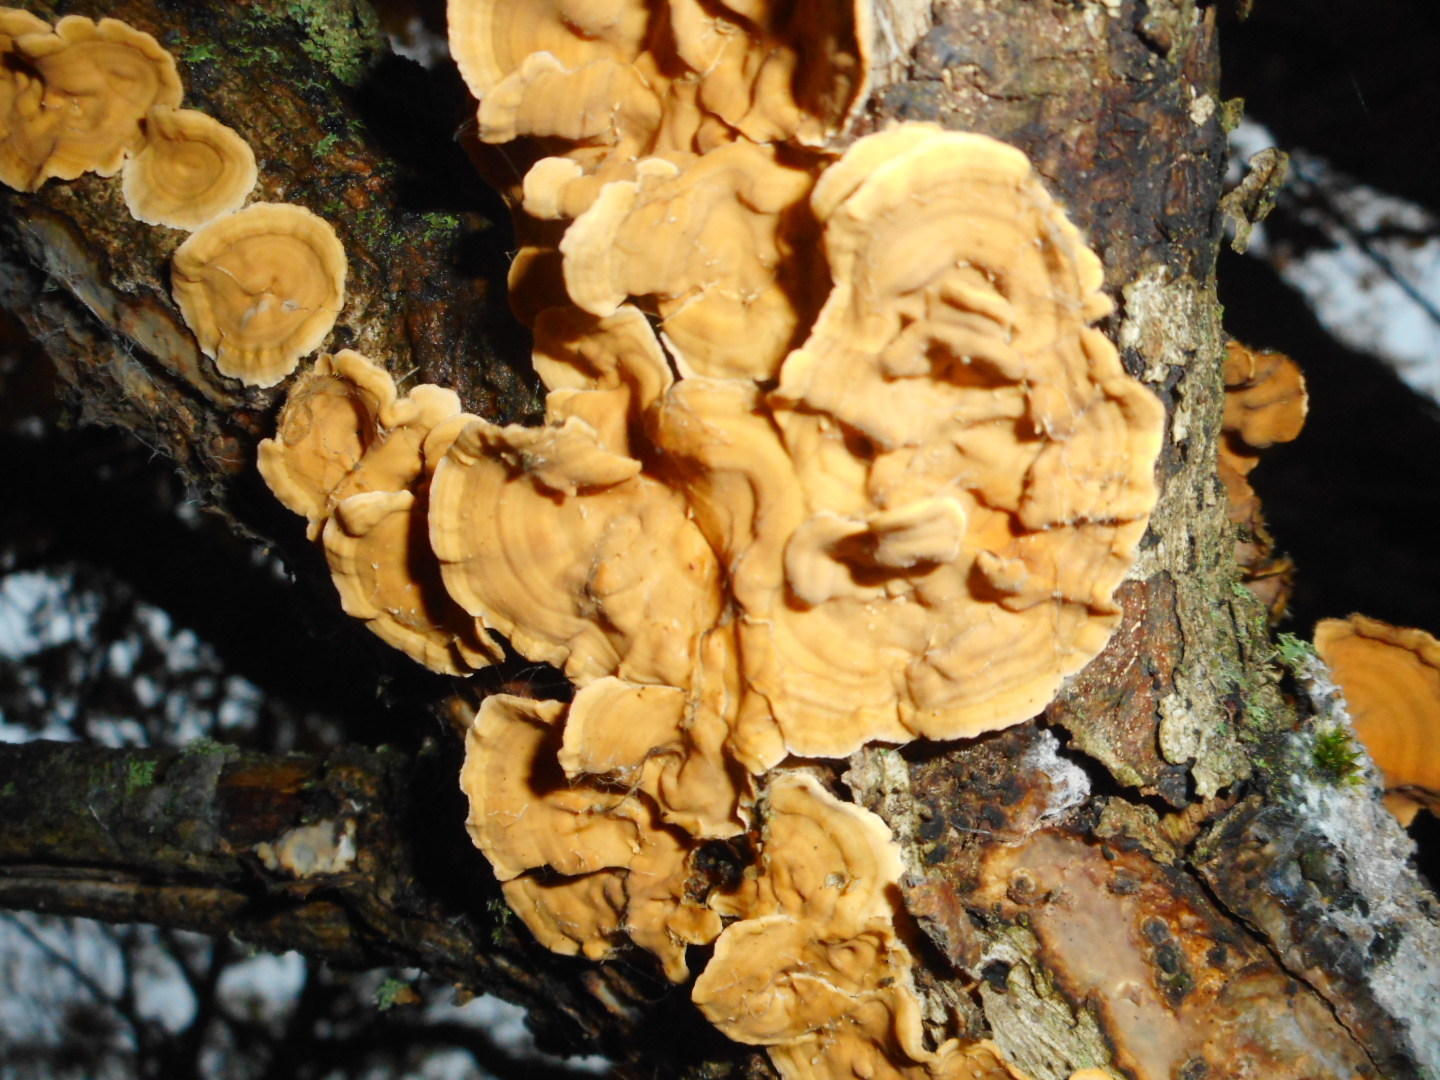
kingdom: Fungi
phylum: Basidiomycota
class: Agaricomycetes
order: Russulales
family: Stereaceae
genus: Stereum
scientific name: Stereum hirsutum
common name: Hairy curtain crust
